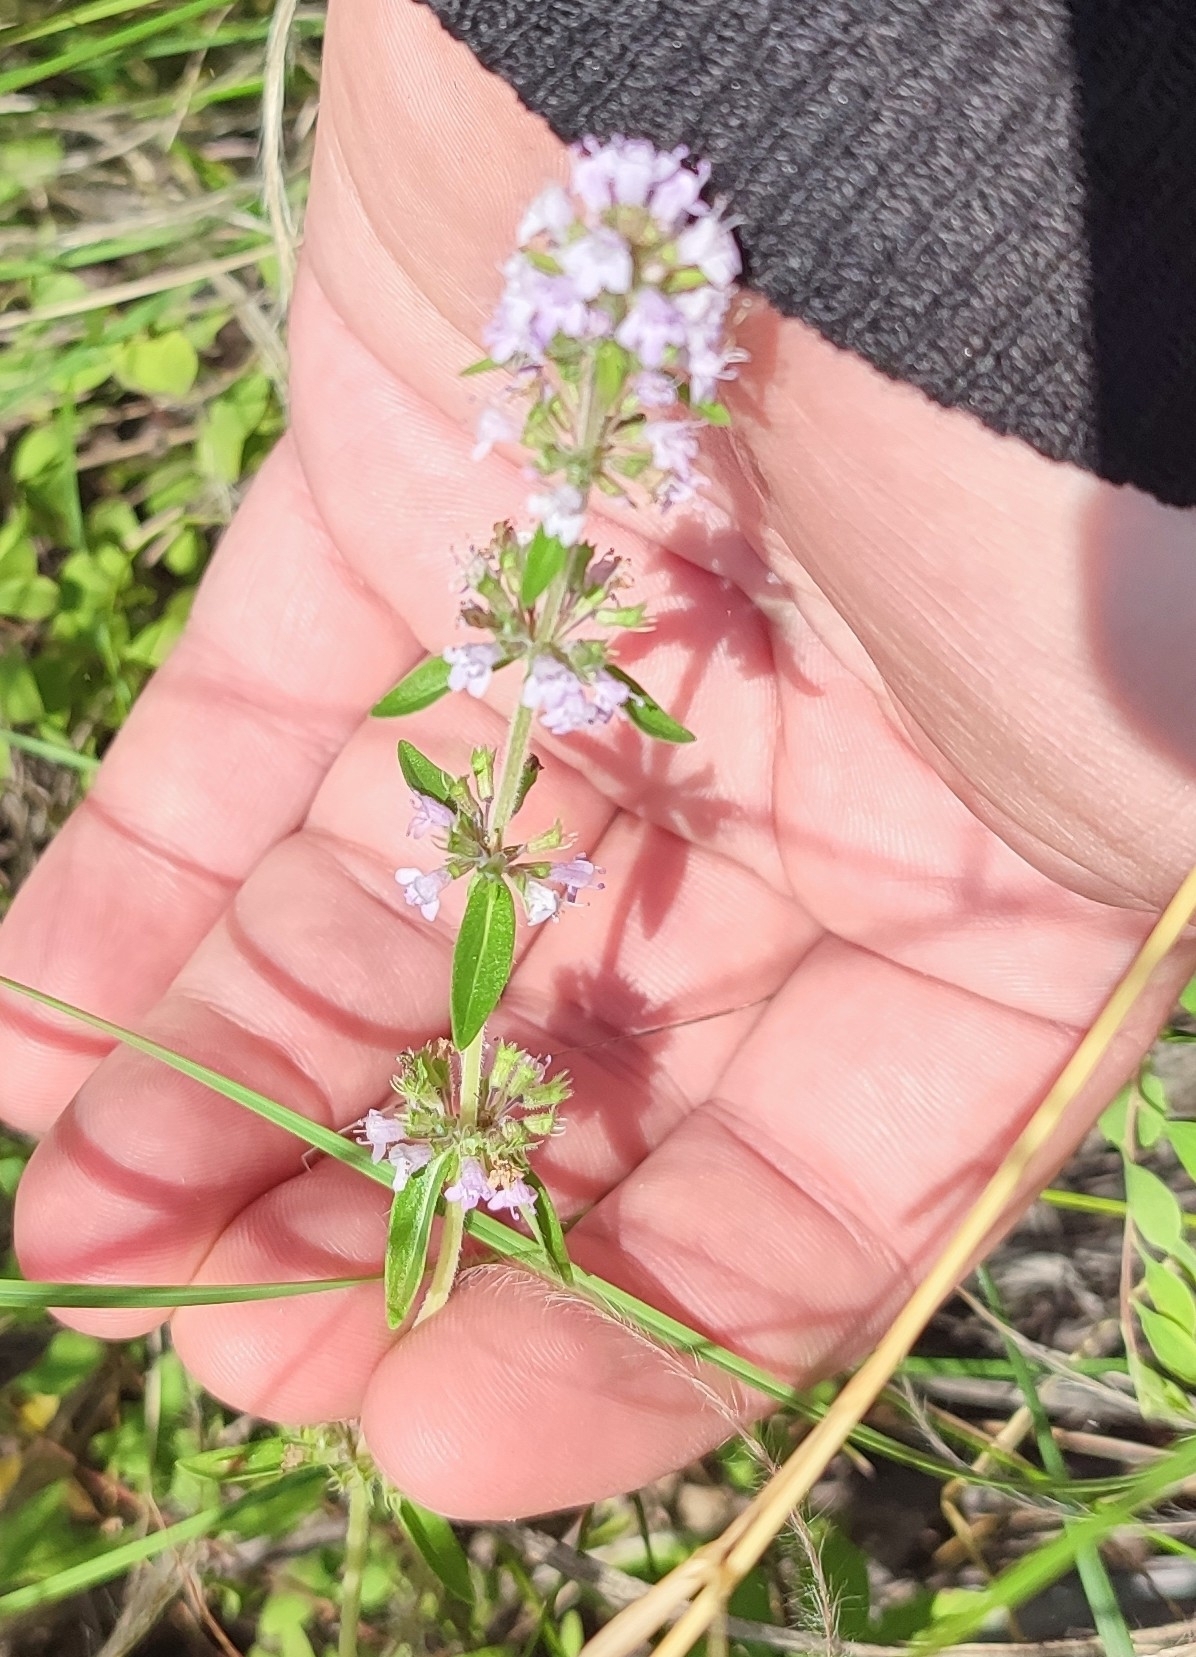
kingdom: Plantae
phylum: Tracheophyta
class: Magnoliopsida
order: Lamiales
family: Lamiaceae
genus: Thymus
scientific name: Thymus pannonicus
